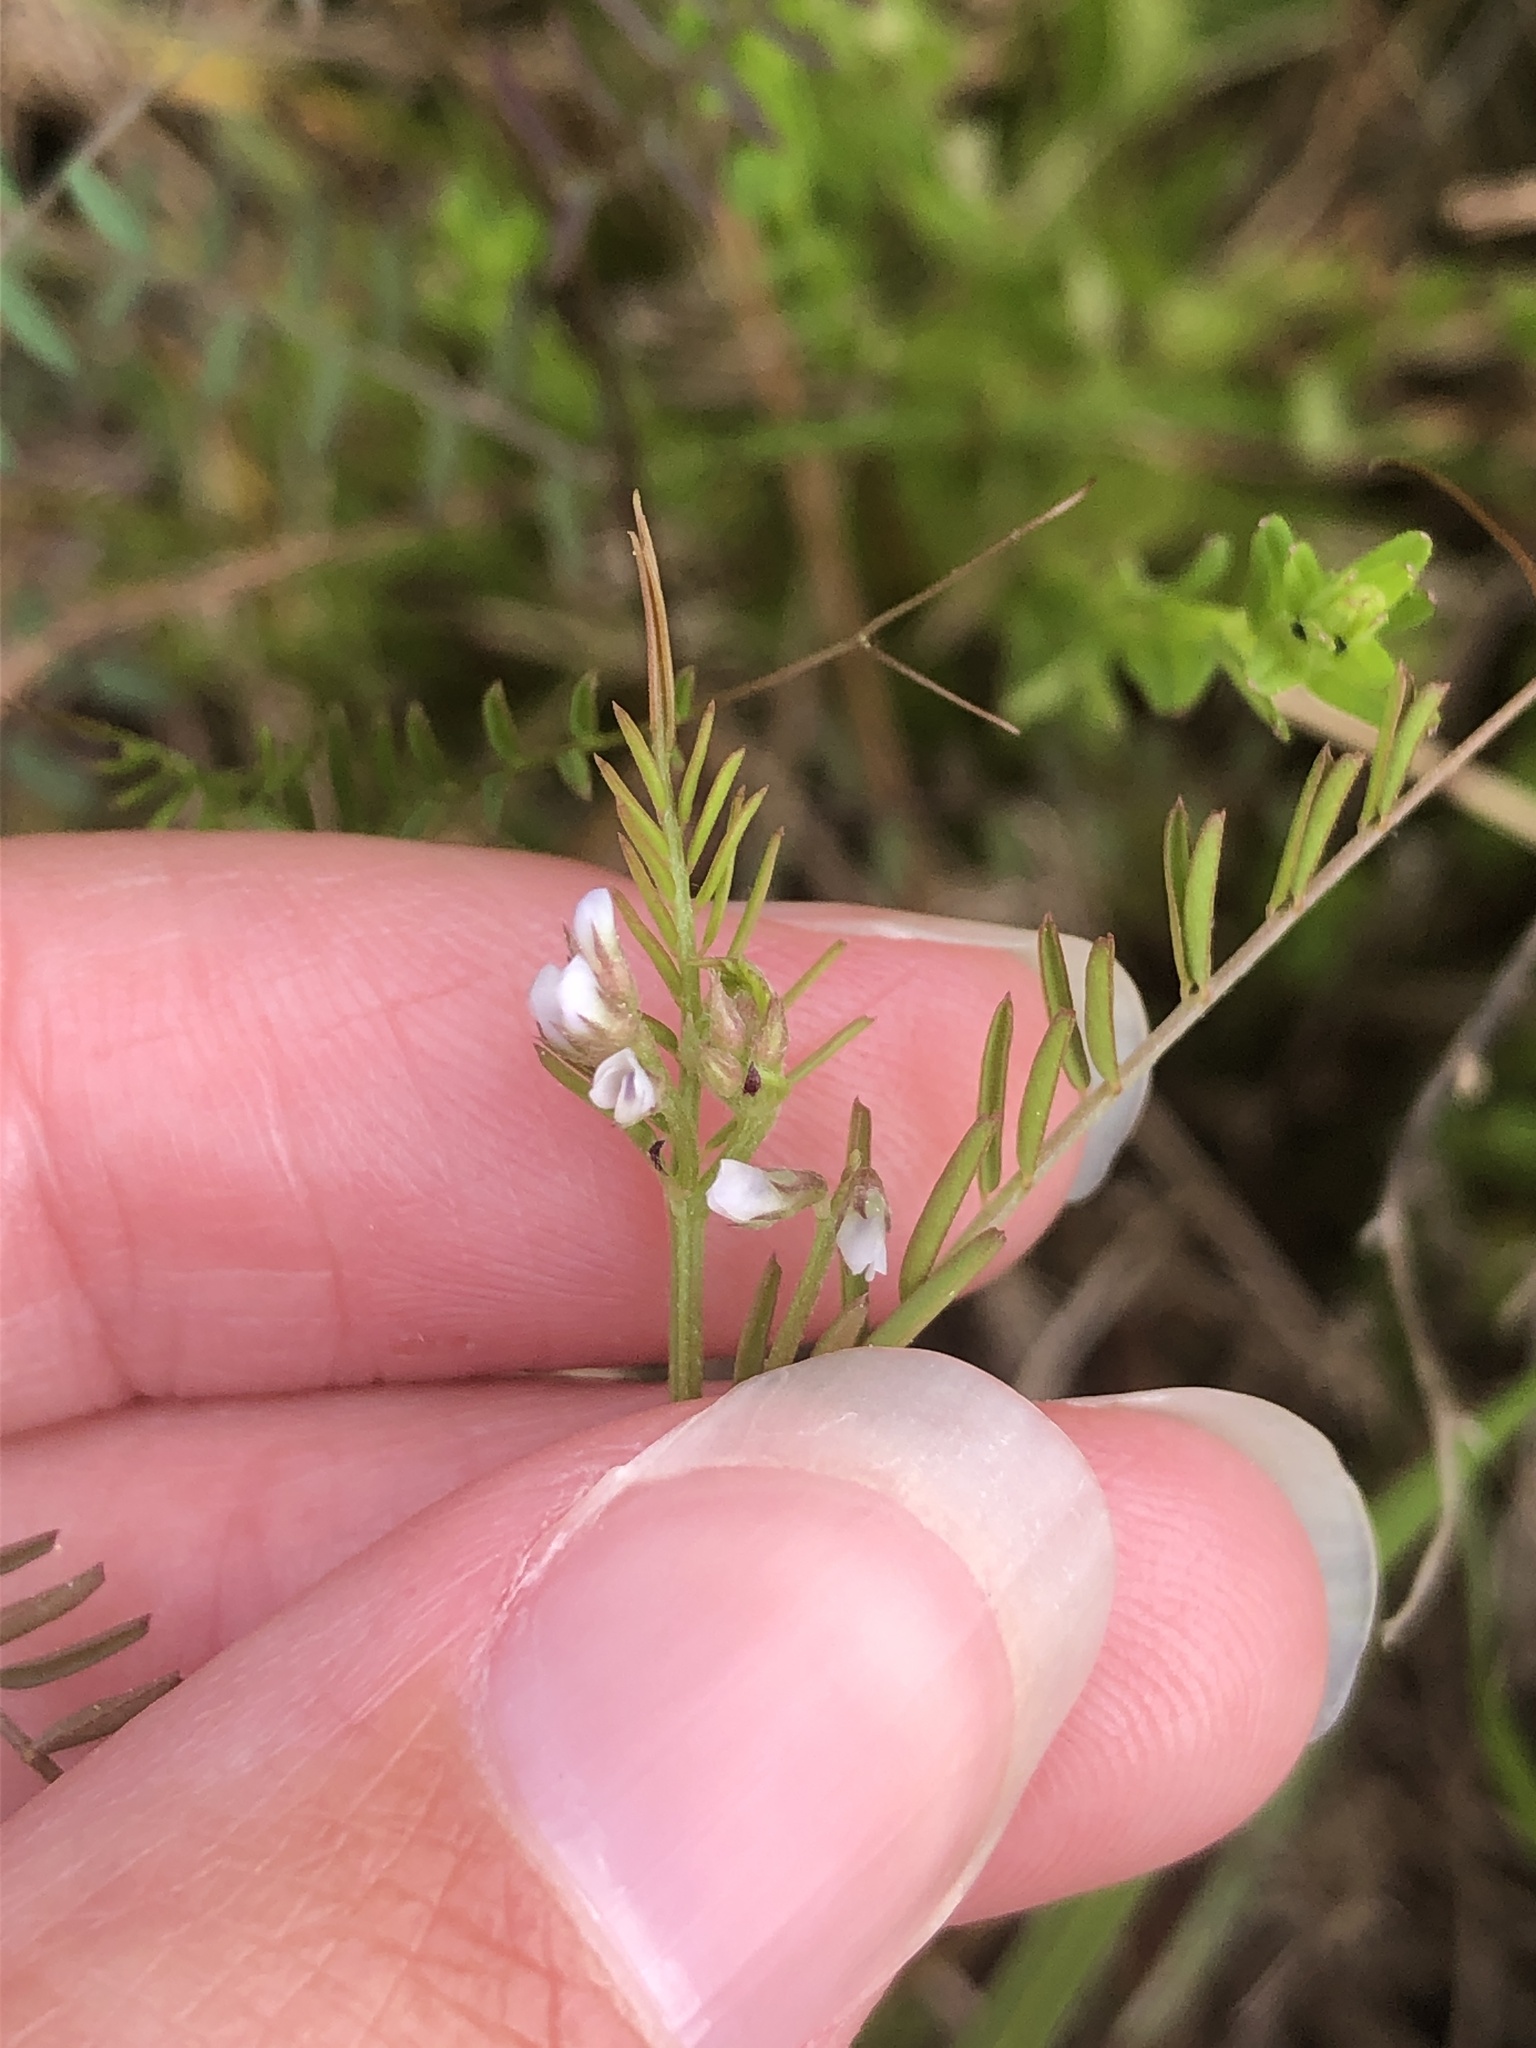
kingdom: Plantae
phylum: Tracheophyta
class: Magnoliopsida
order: Fabales
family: Fabaceae
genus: Vicia
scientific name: Vicia hirsuta
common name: Tiny vetch
